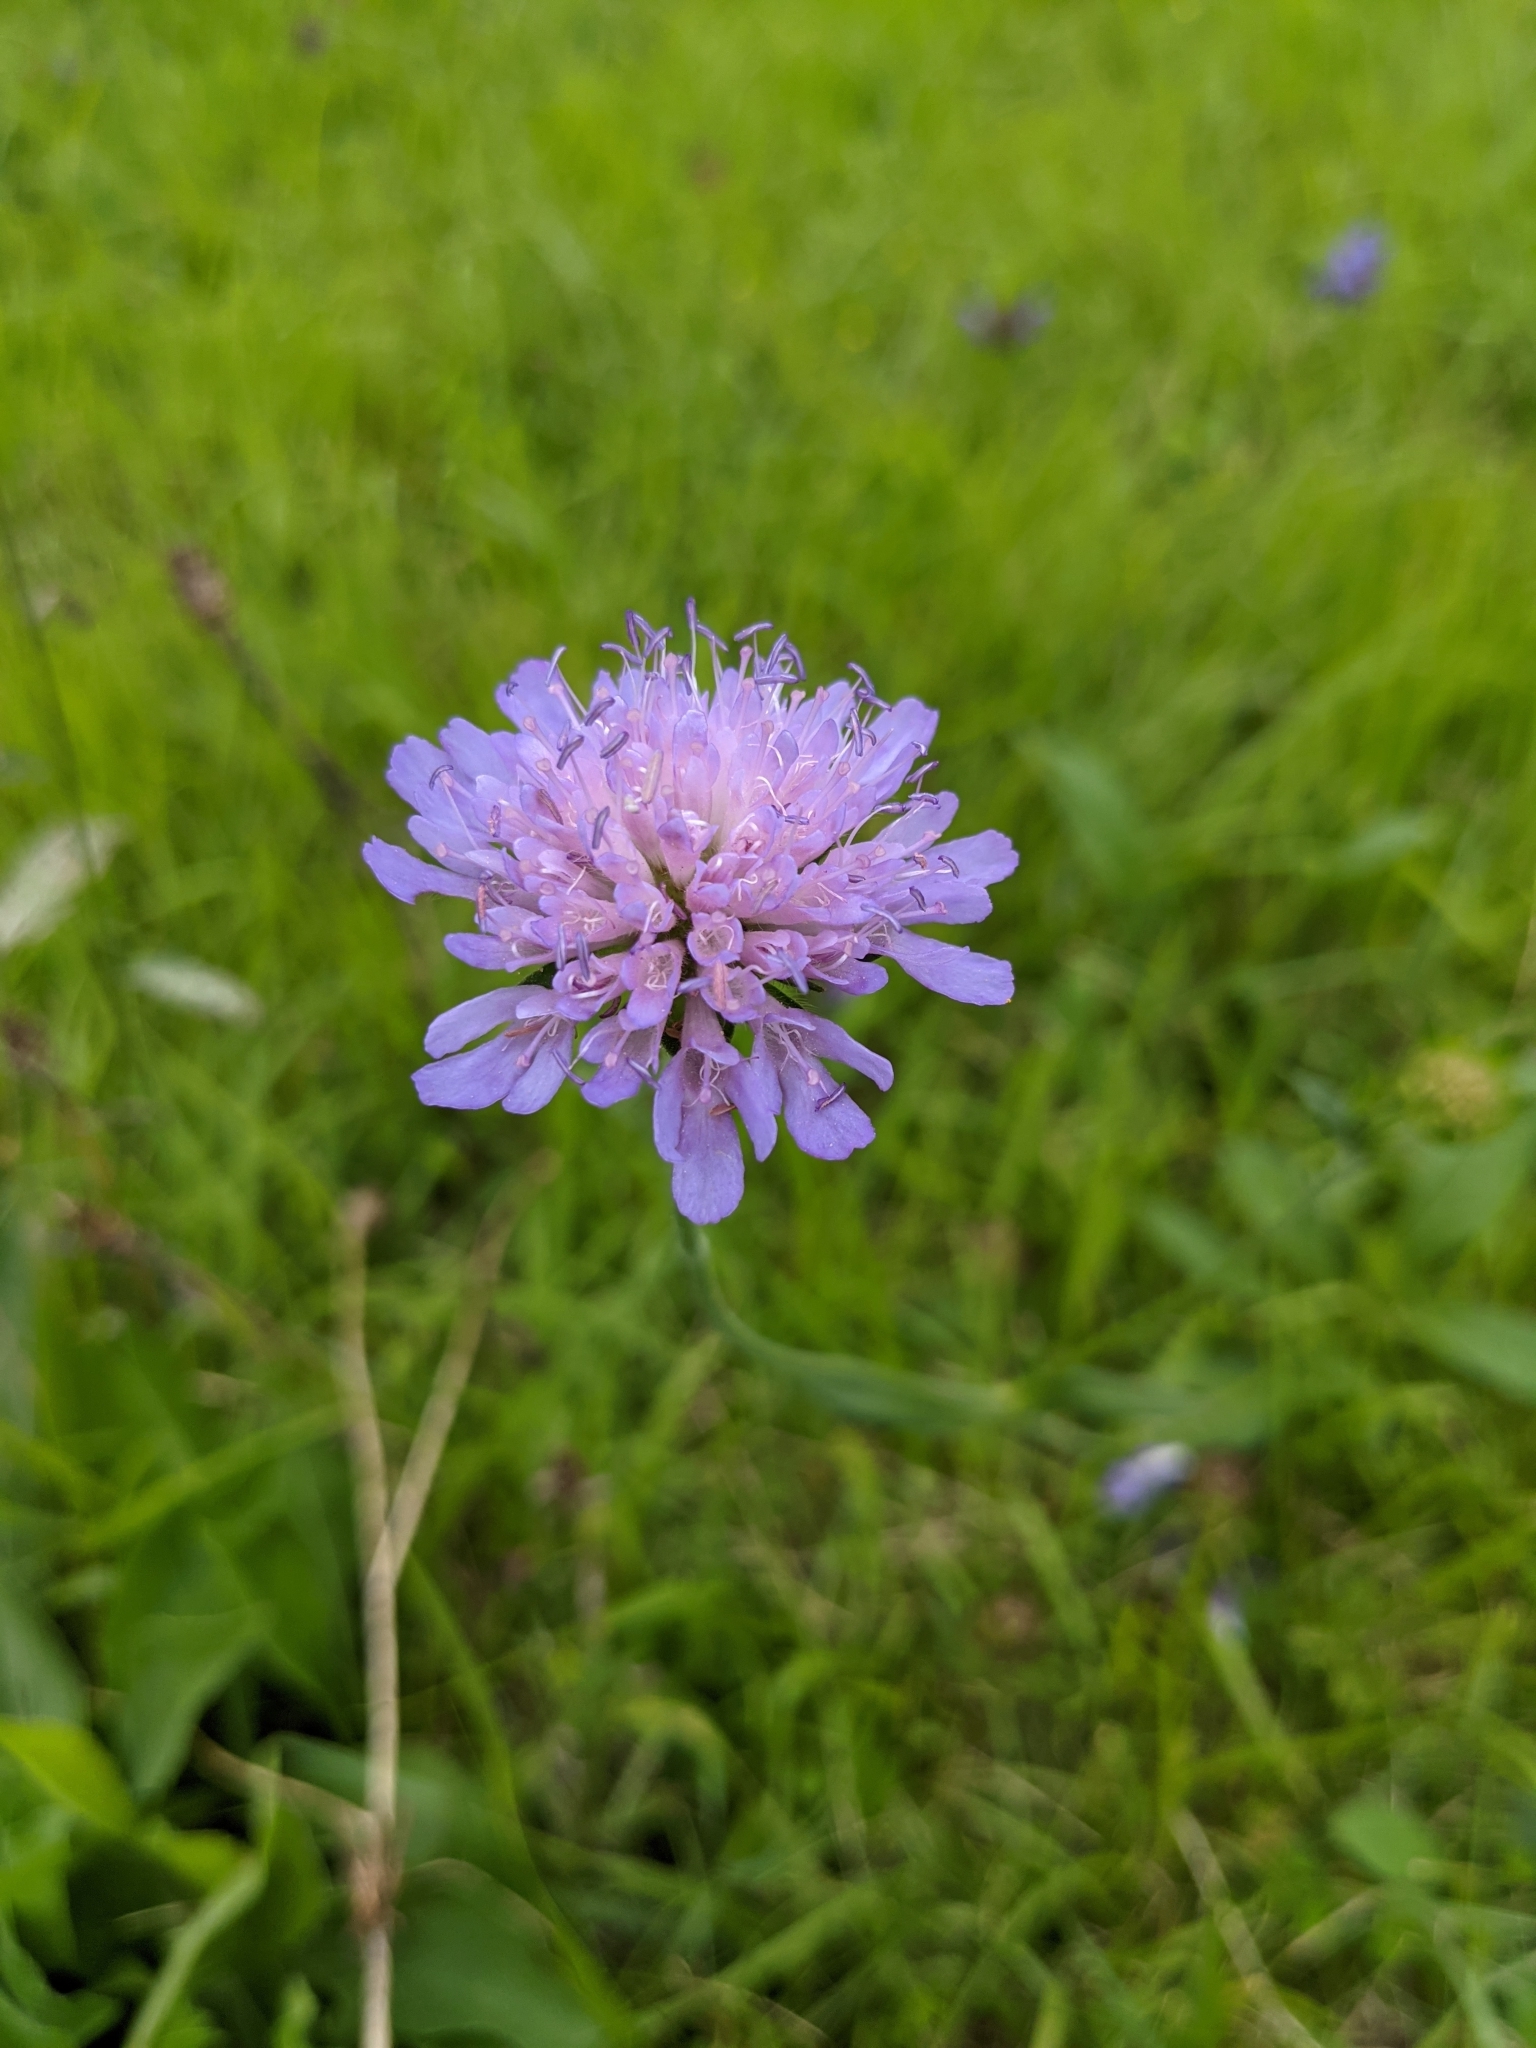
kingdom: Plantae
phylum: Tracheophyta
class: Magnoliopsida
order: Dipsacales
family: Caprifoliaceae
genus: Knautia
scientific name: Knautia arvensis
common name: Field scabiosa
